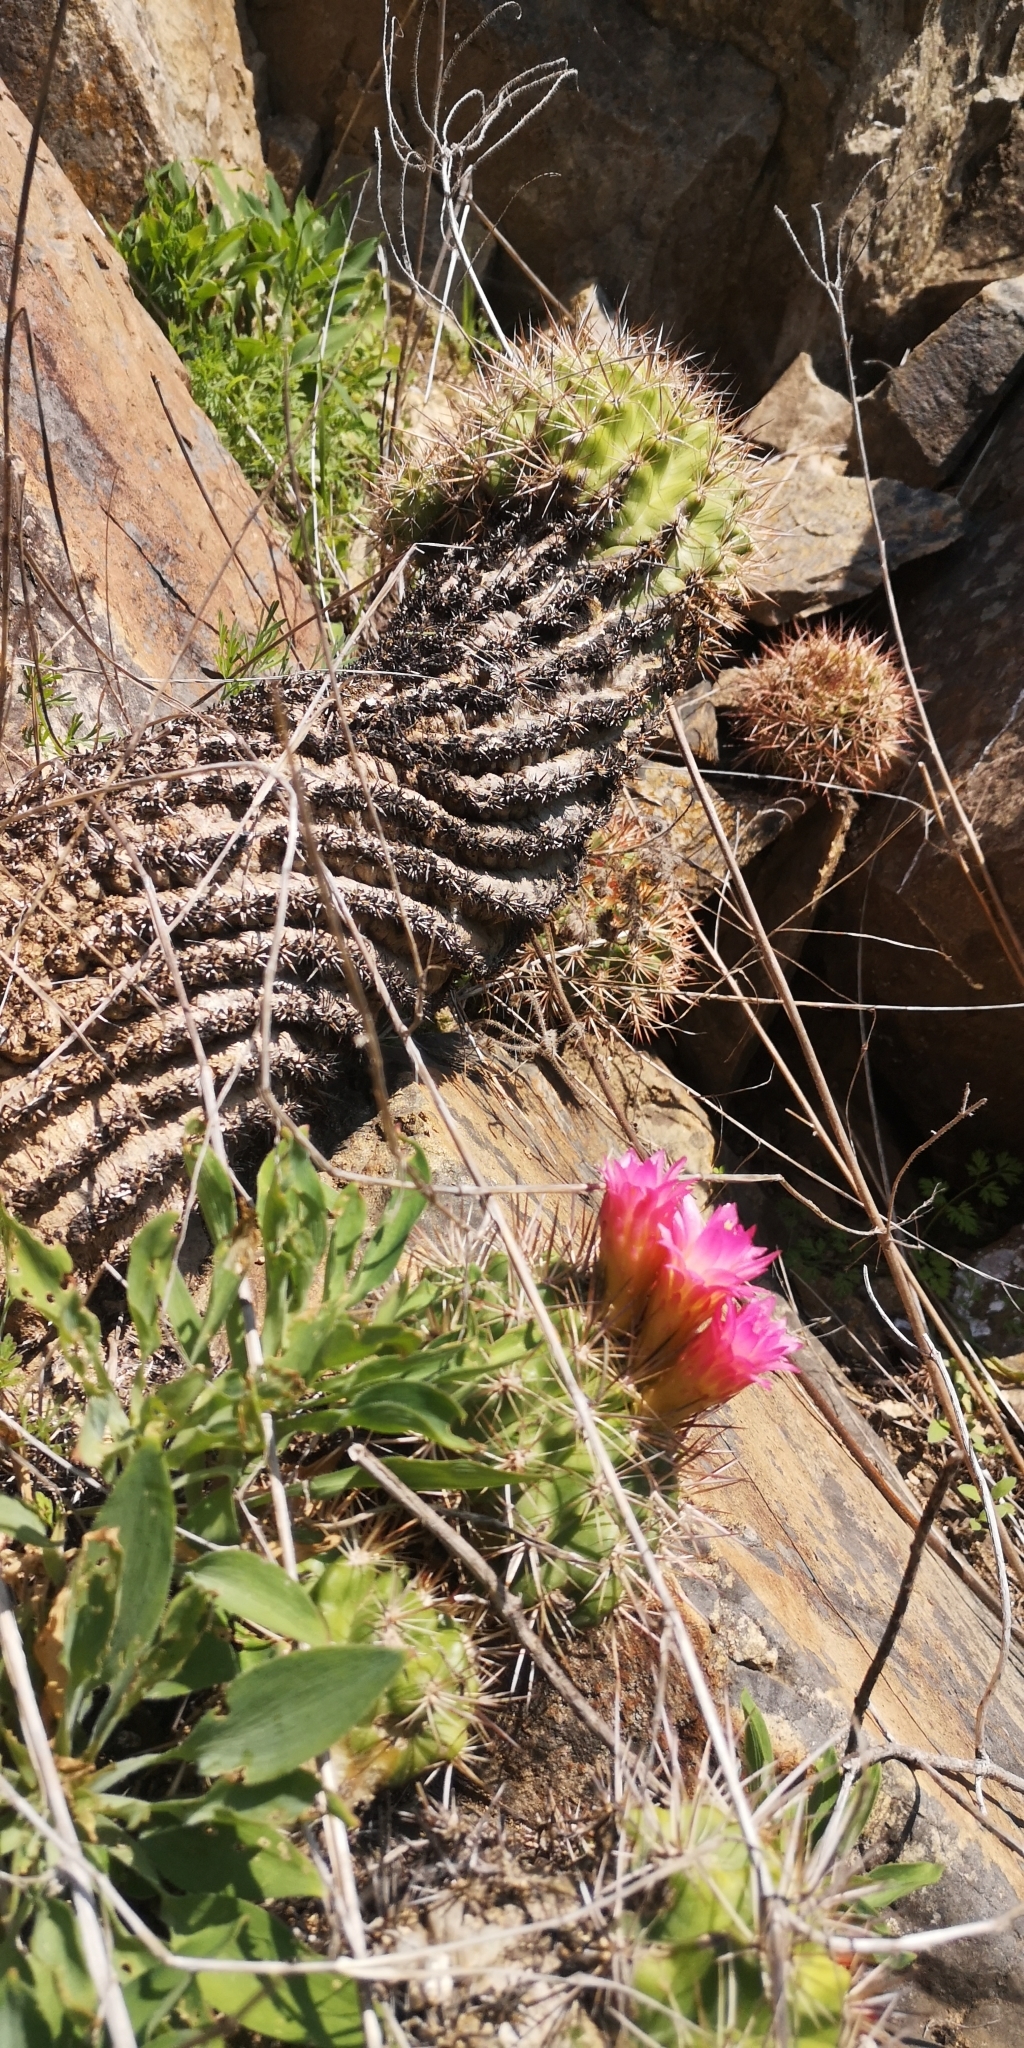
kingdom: Plantae
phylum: Tracheophyta
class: Magnoliopsida
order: Caryophyllales
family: Cactaceae
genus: Eriosyce
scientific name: Eriosyce castanea
